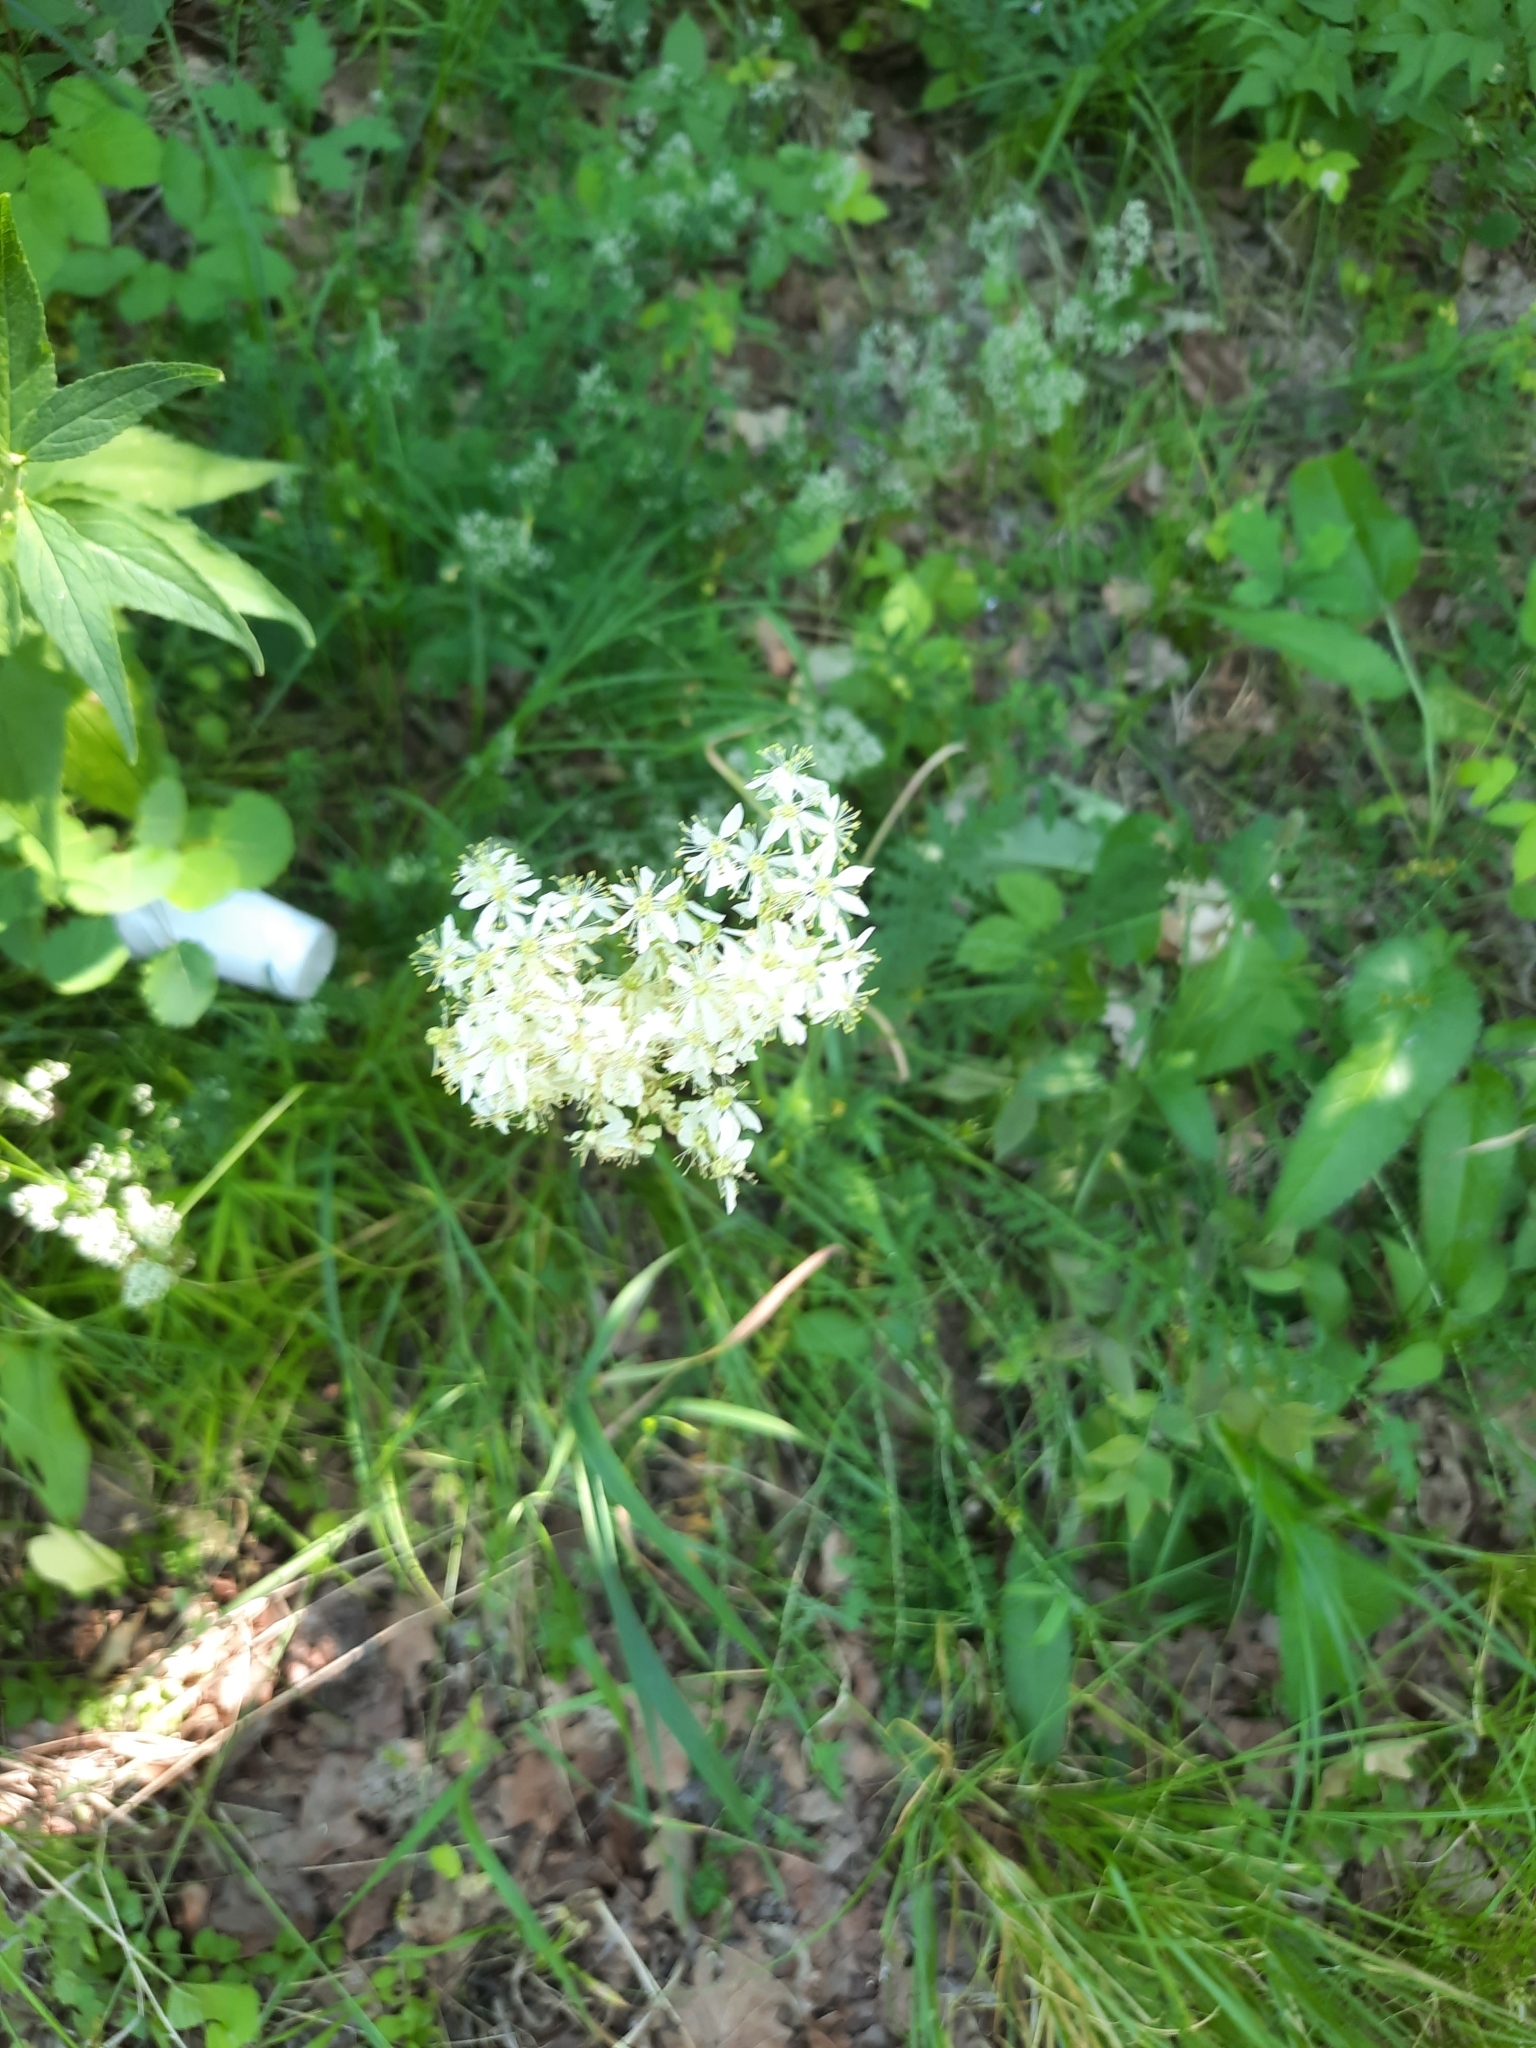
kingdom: Plantae
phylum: Tracheophyta
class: Magnoliopsida
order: Rosales
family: Rosaceae
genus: Filipendula
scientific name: Filipendula vulgaris
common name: Dropwort
